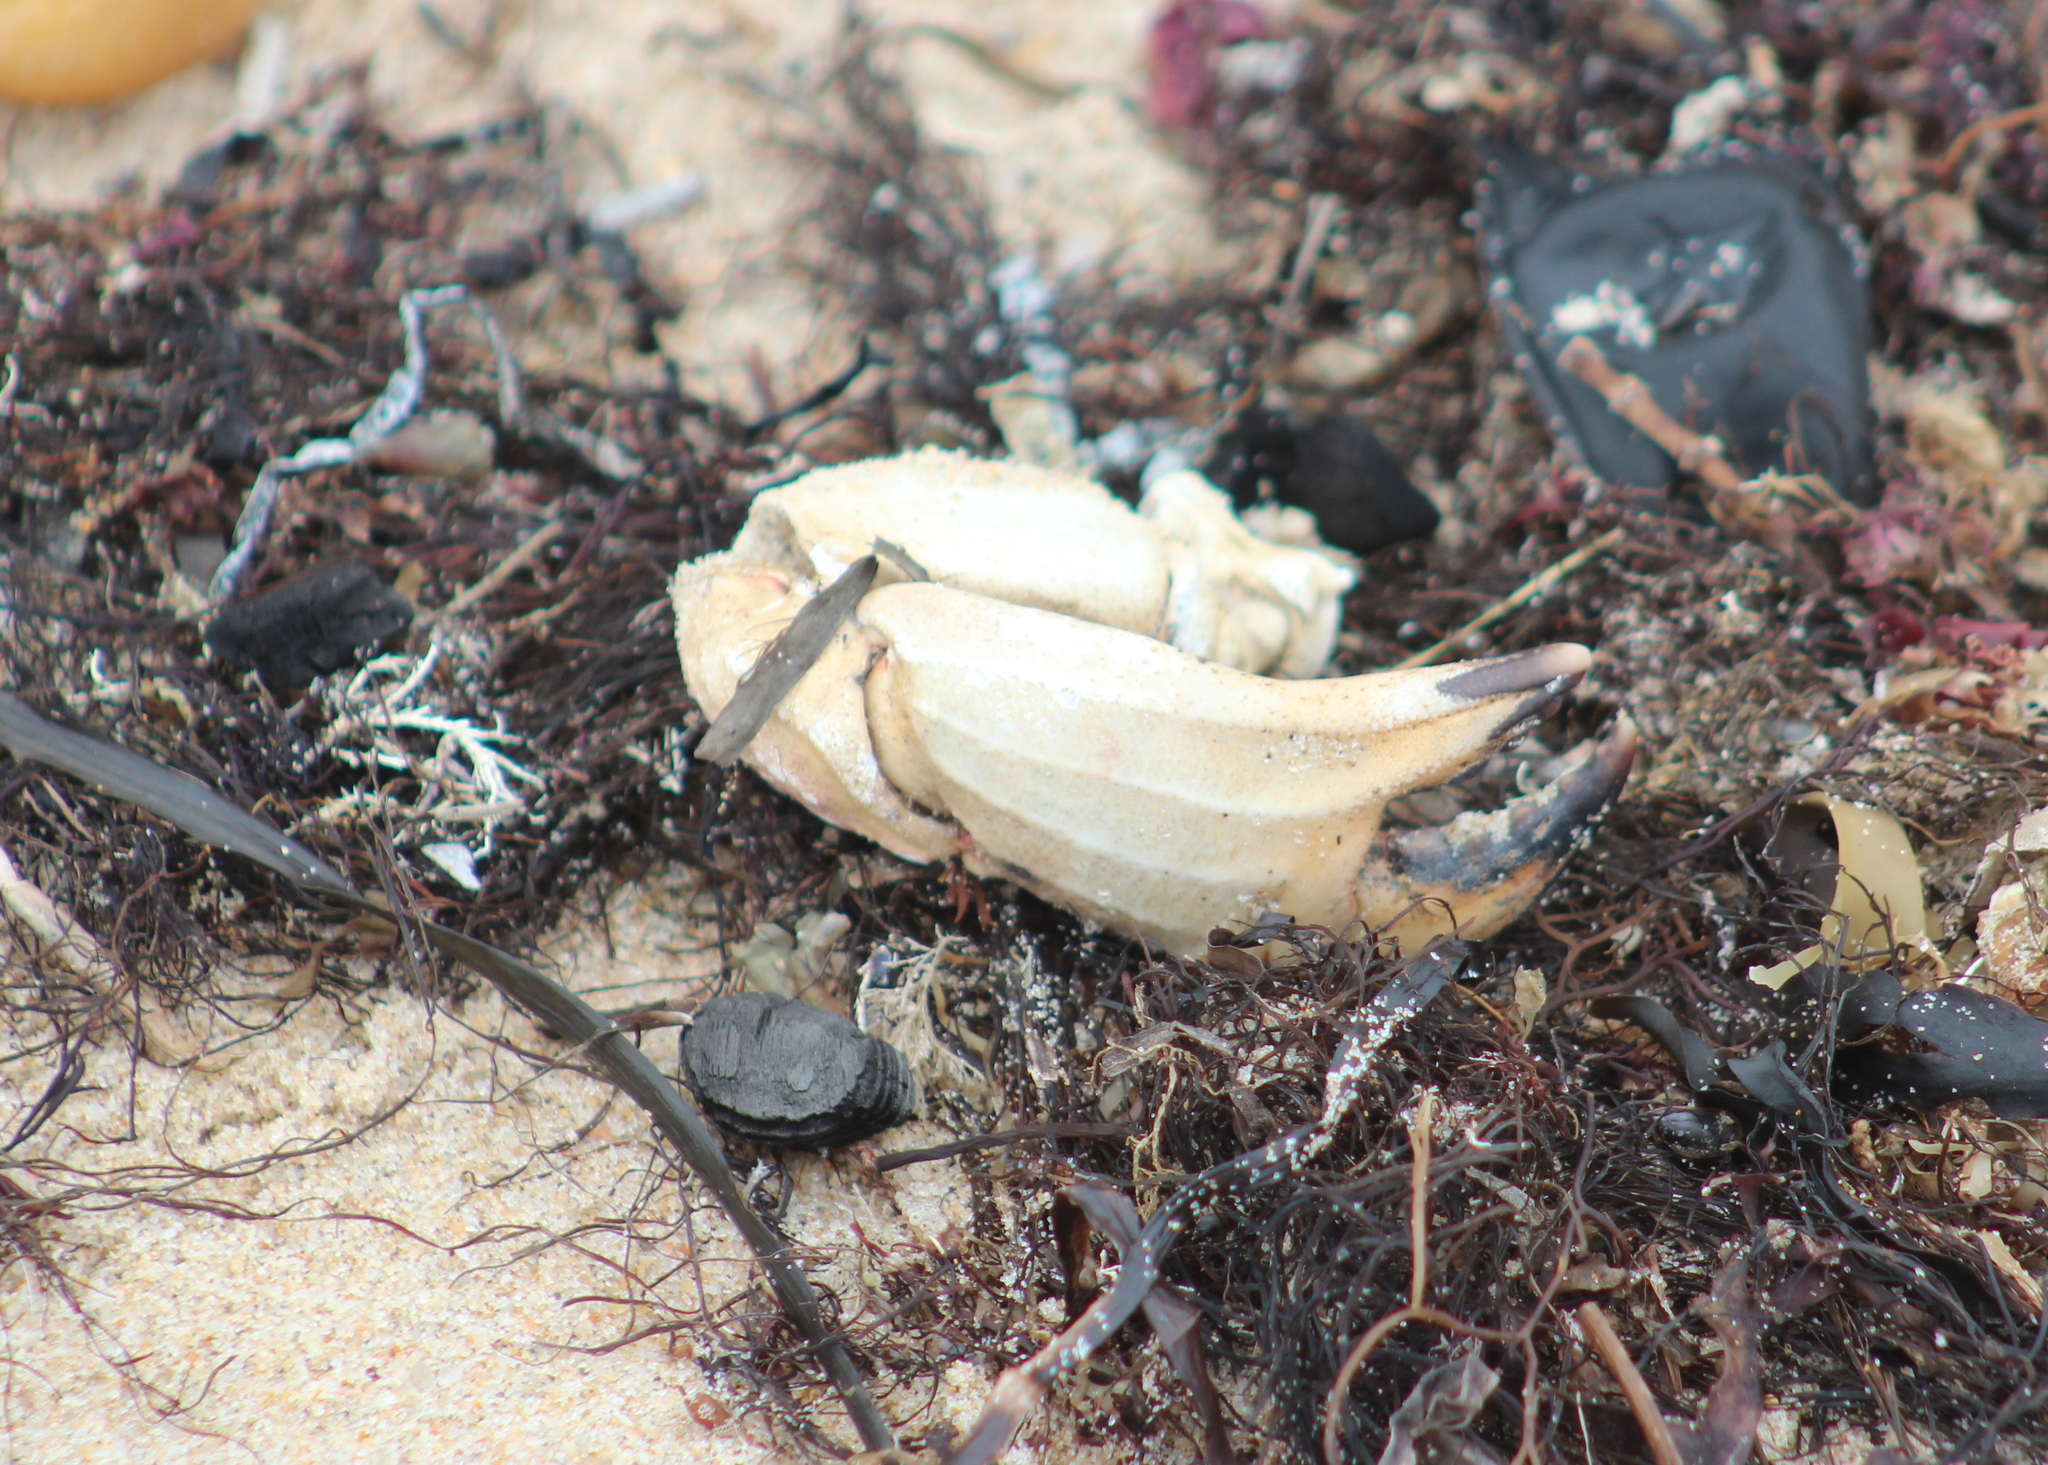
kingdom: Animalia
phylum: Arthropoda
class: Malacostraca
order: Decapoda
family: Cancridae
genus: Cancer
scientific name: Cancer borealis
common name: Jonah crab
